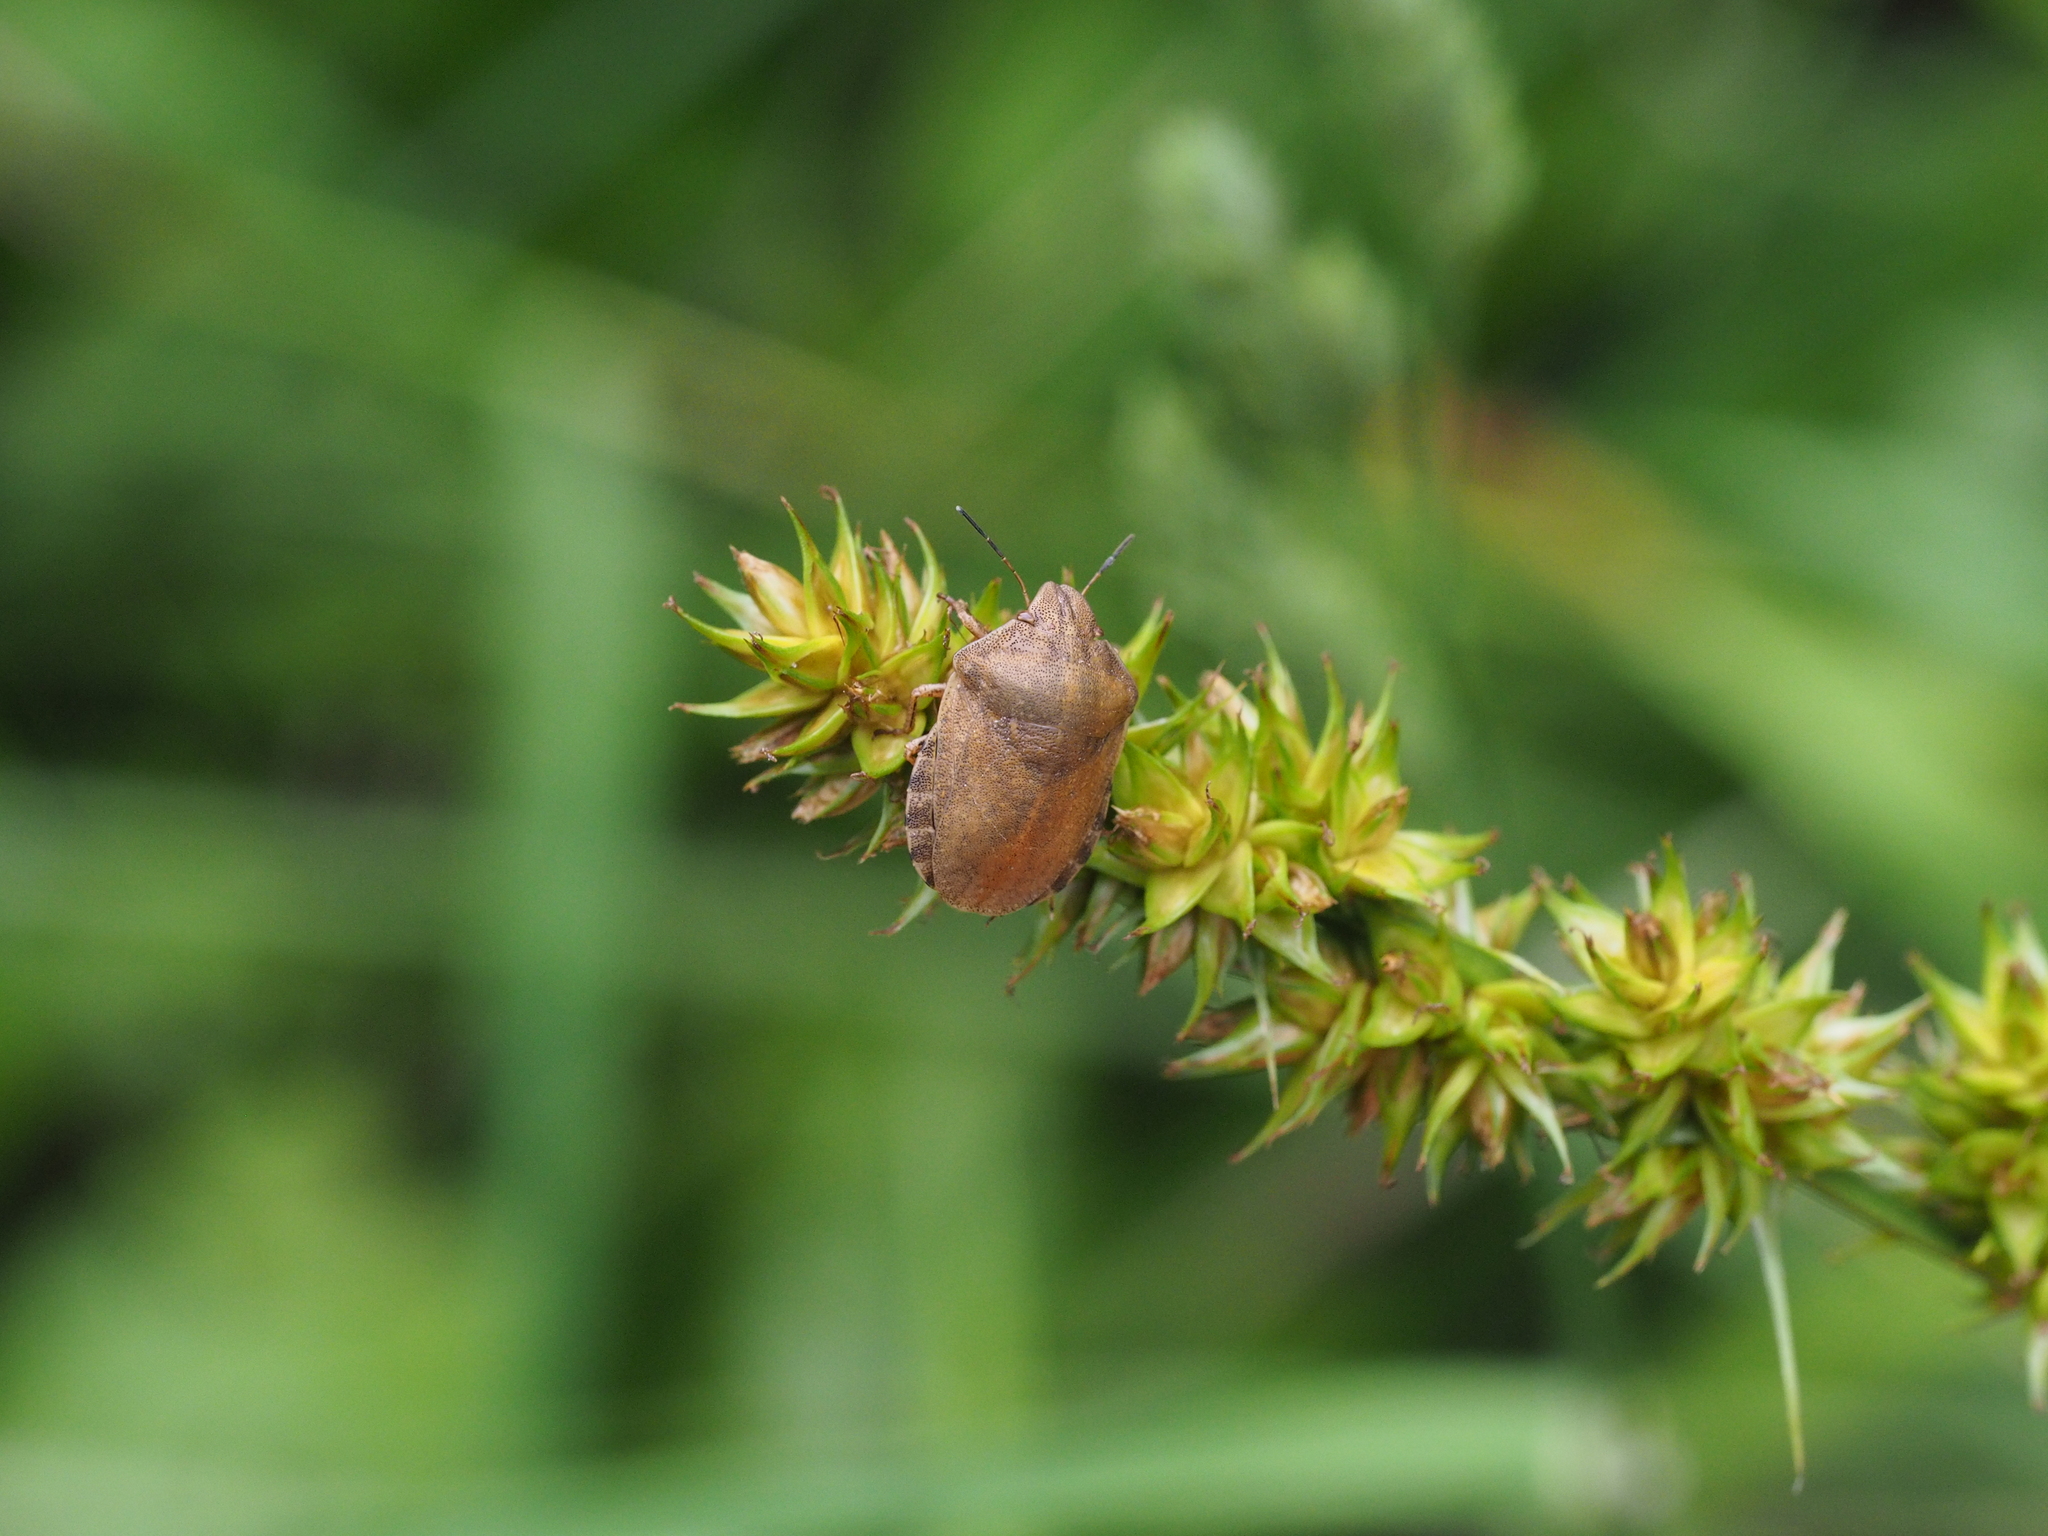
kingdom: Animalia
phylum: Arthropoda
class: Insecta
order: Hemiptera
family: Scutelleridae
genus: Eurygaster
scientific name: Eurygaster testudinaria
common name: Tortoise bug
